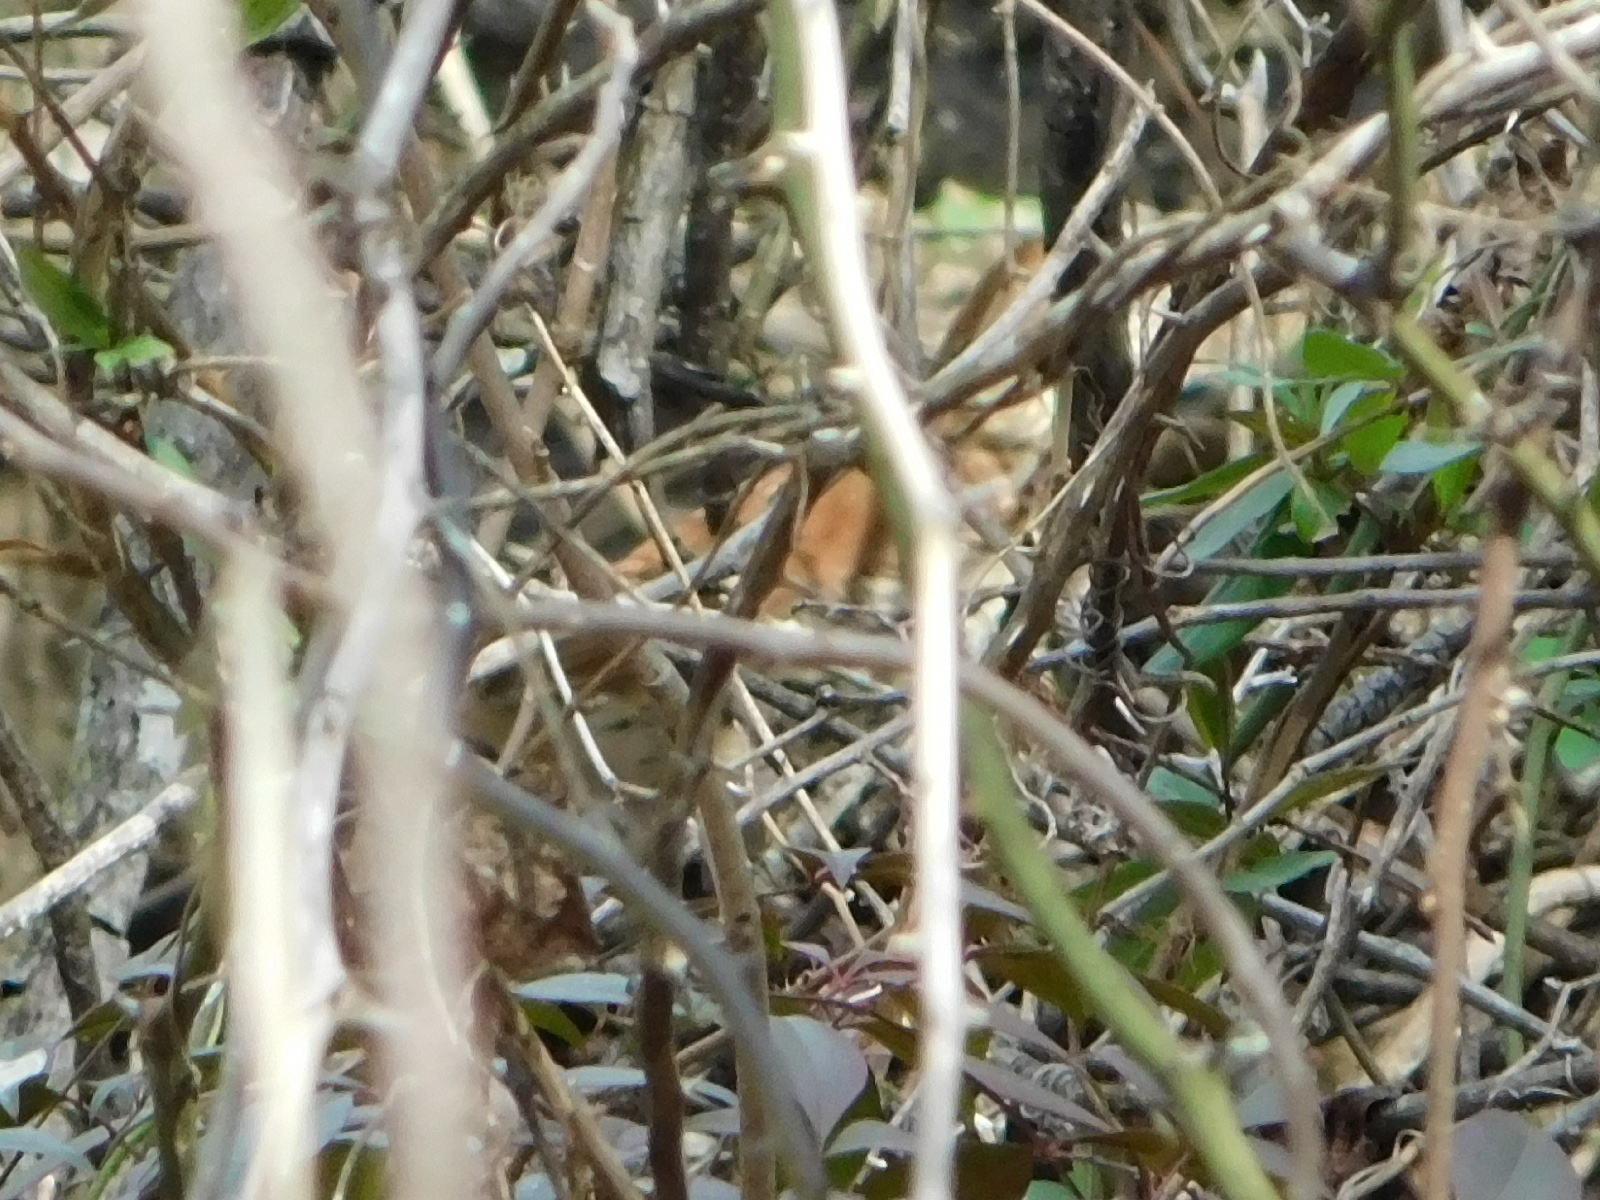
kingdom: Animalia
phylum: Chordata
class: Aves
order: Passeriformes
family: Mimidae
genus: Toxostoma
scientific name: Toxostoma rufum
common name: Brown thrasher
